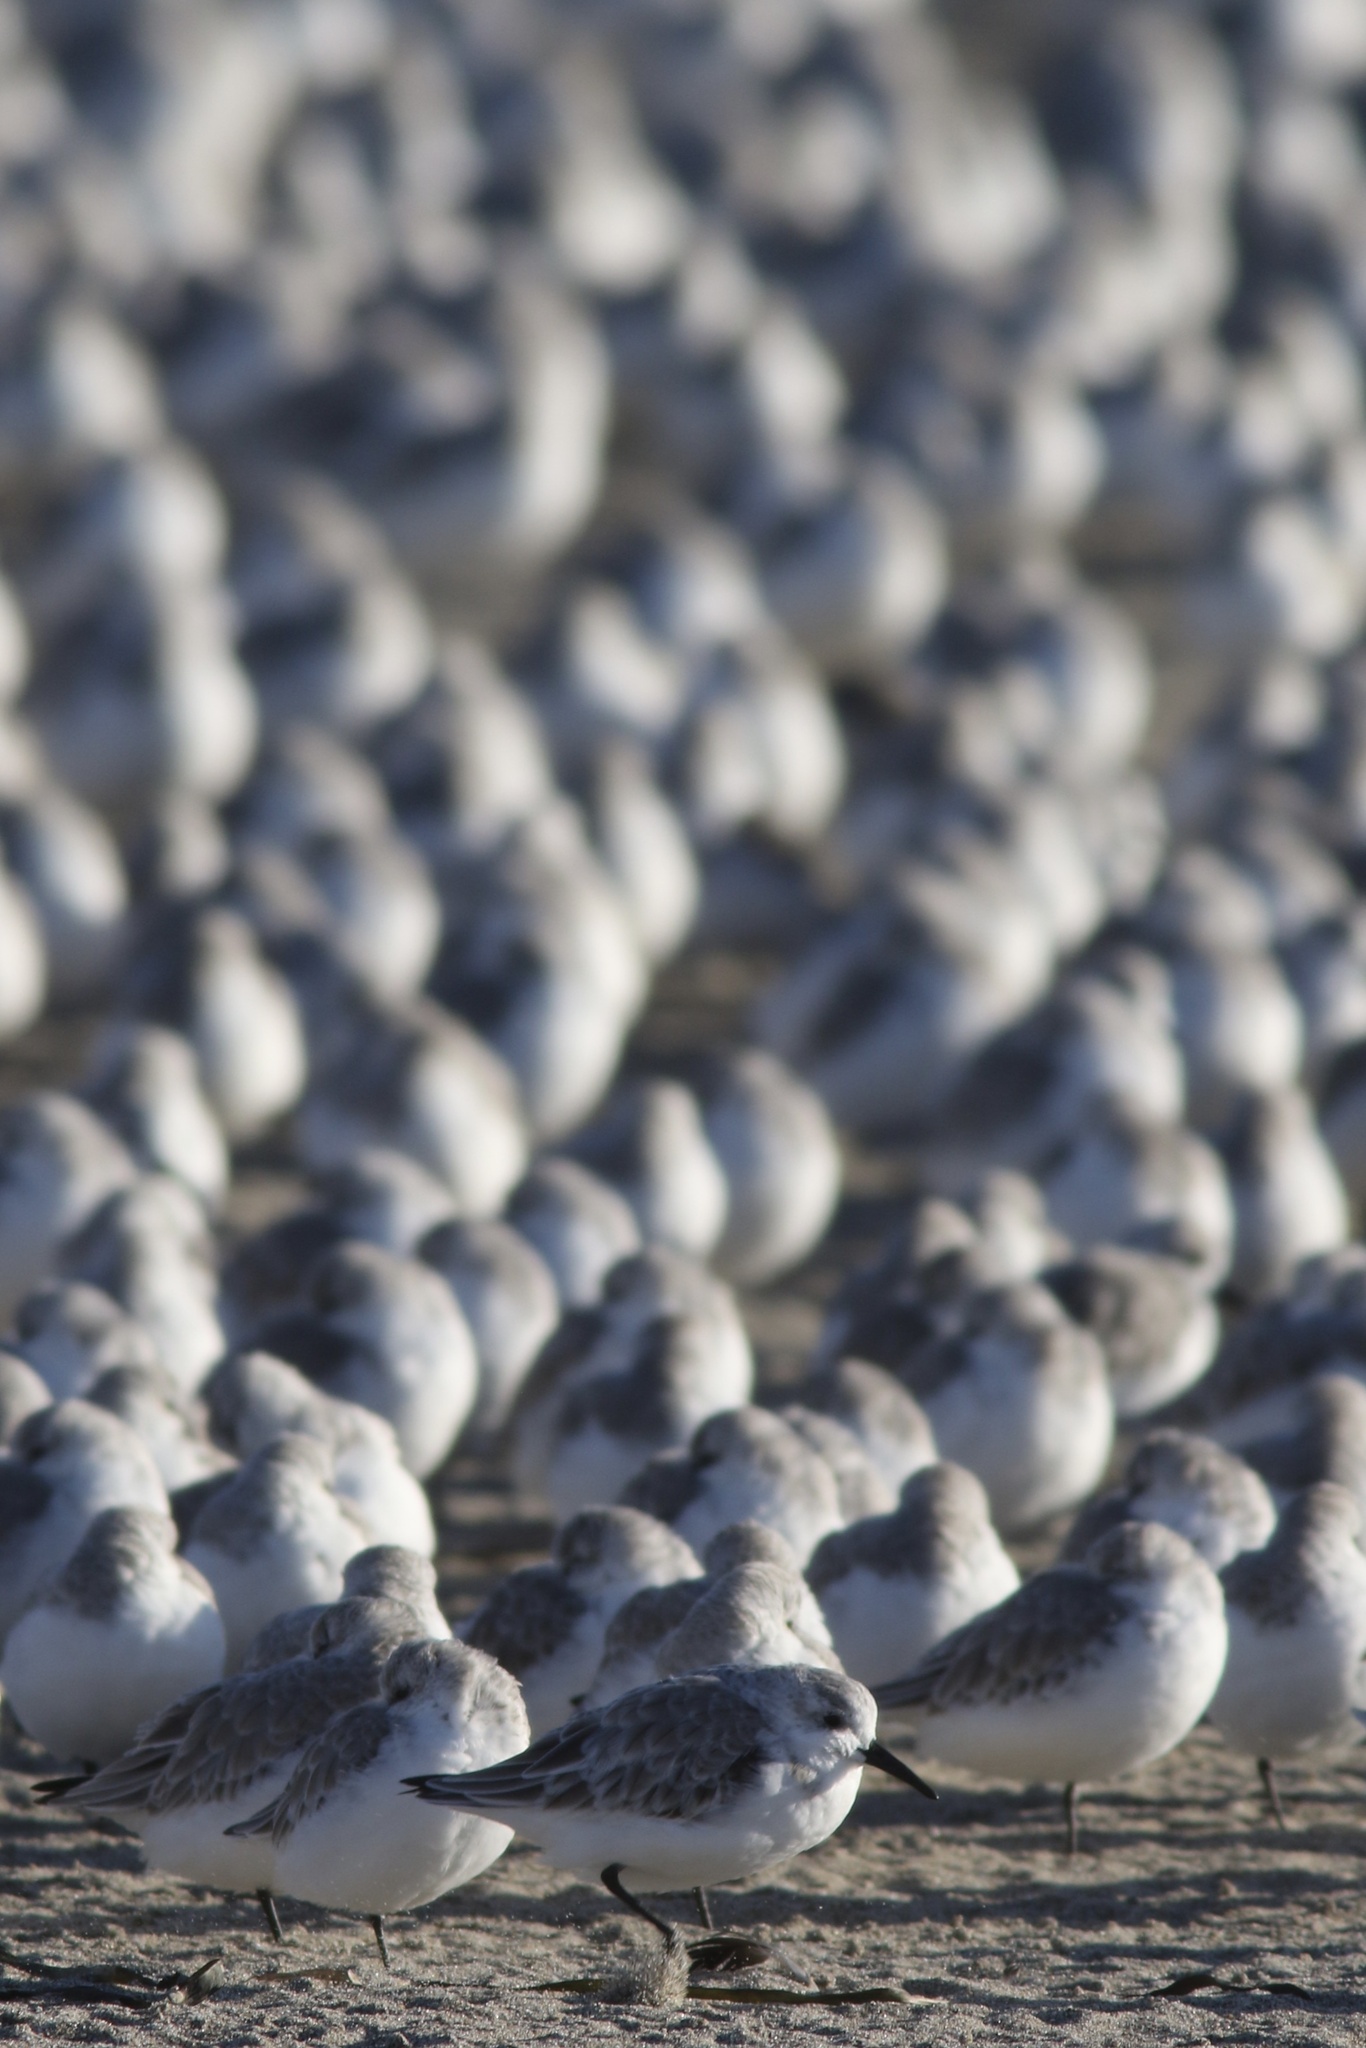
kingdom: Animalia
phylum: Chordata
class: Aves
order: Charadriiformes
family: Scolopacidae
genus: Calidris
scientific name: Calidris alba
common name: Sanderling
